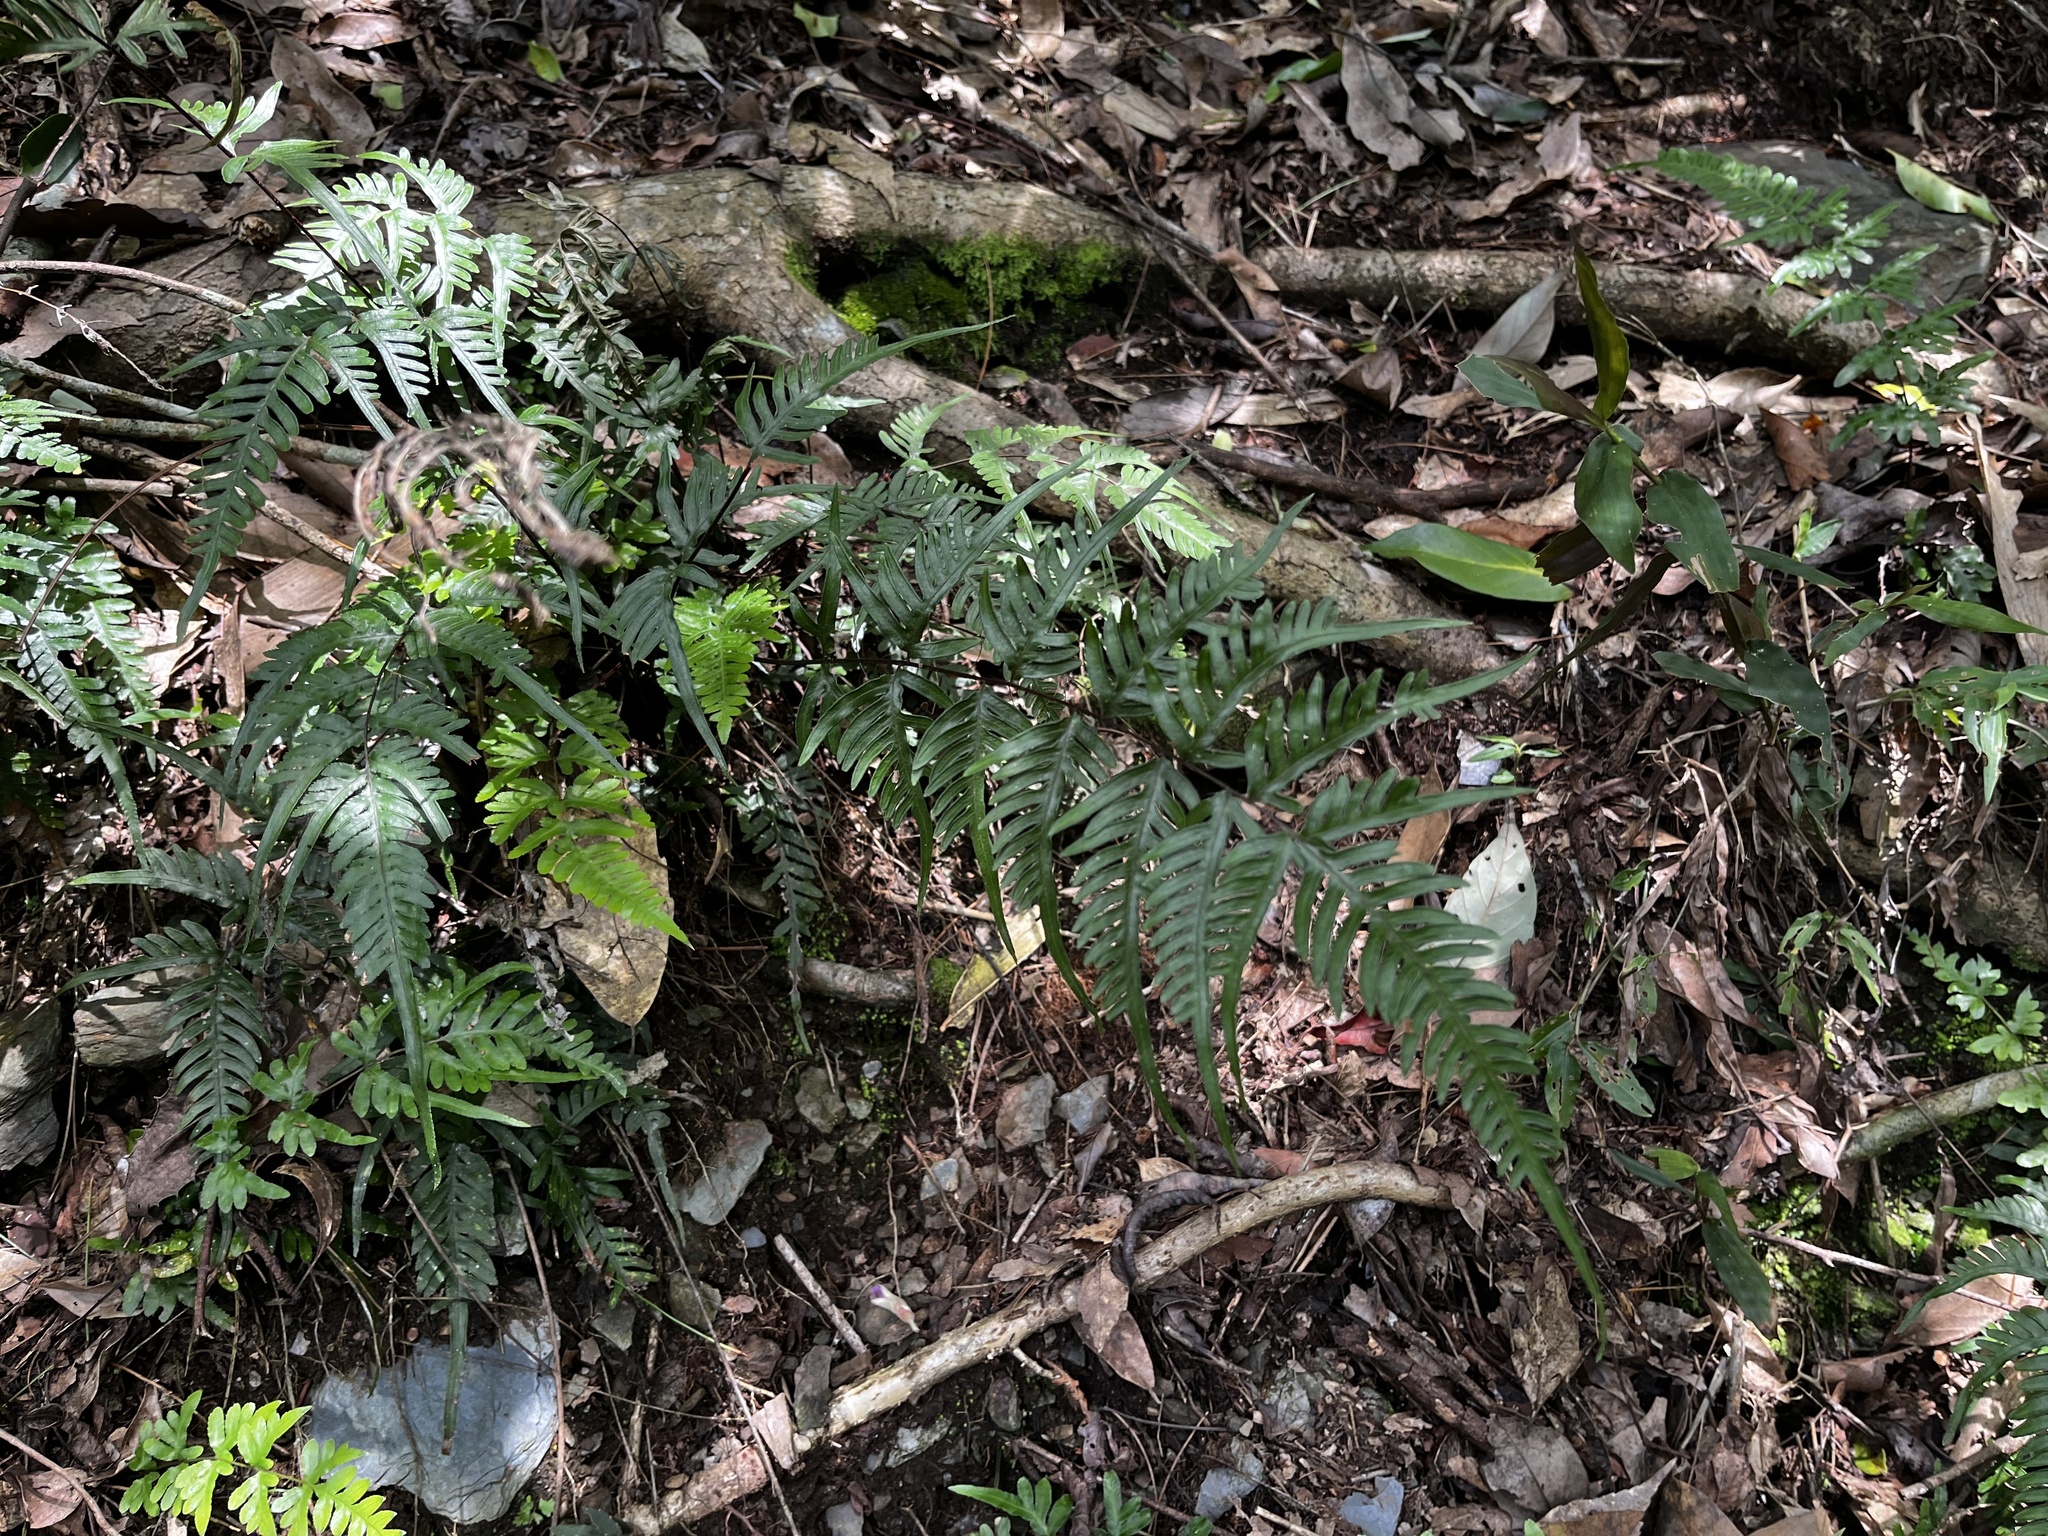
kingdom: Plantae
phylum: Tracheophyta
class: Polypodiopsida
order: Polypodiales
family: Pteridaceae
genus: Pteris
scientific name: Pteris dispar
